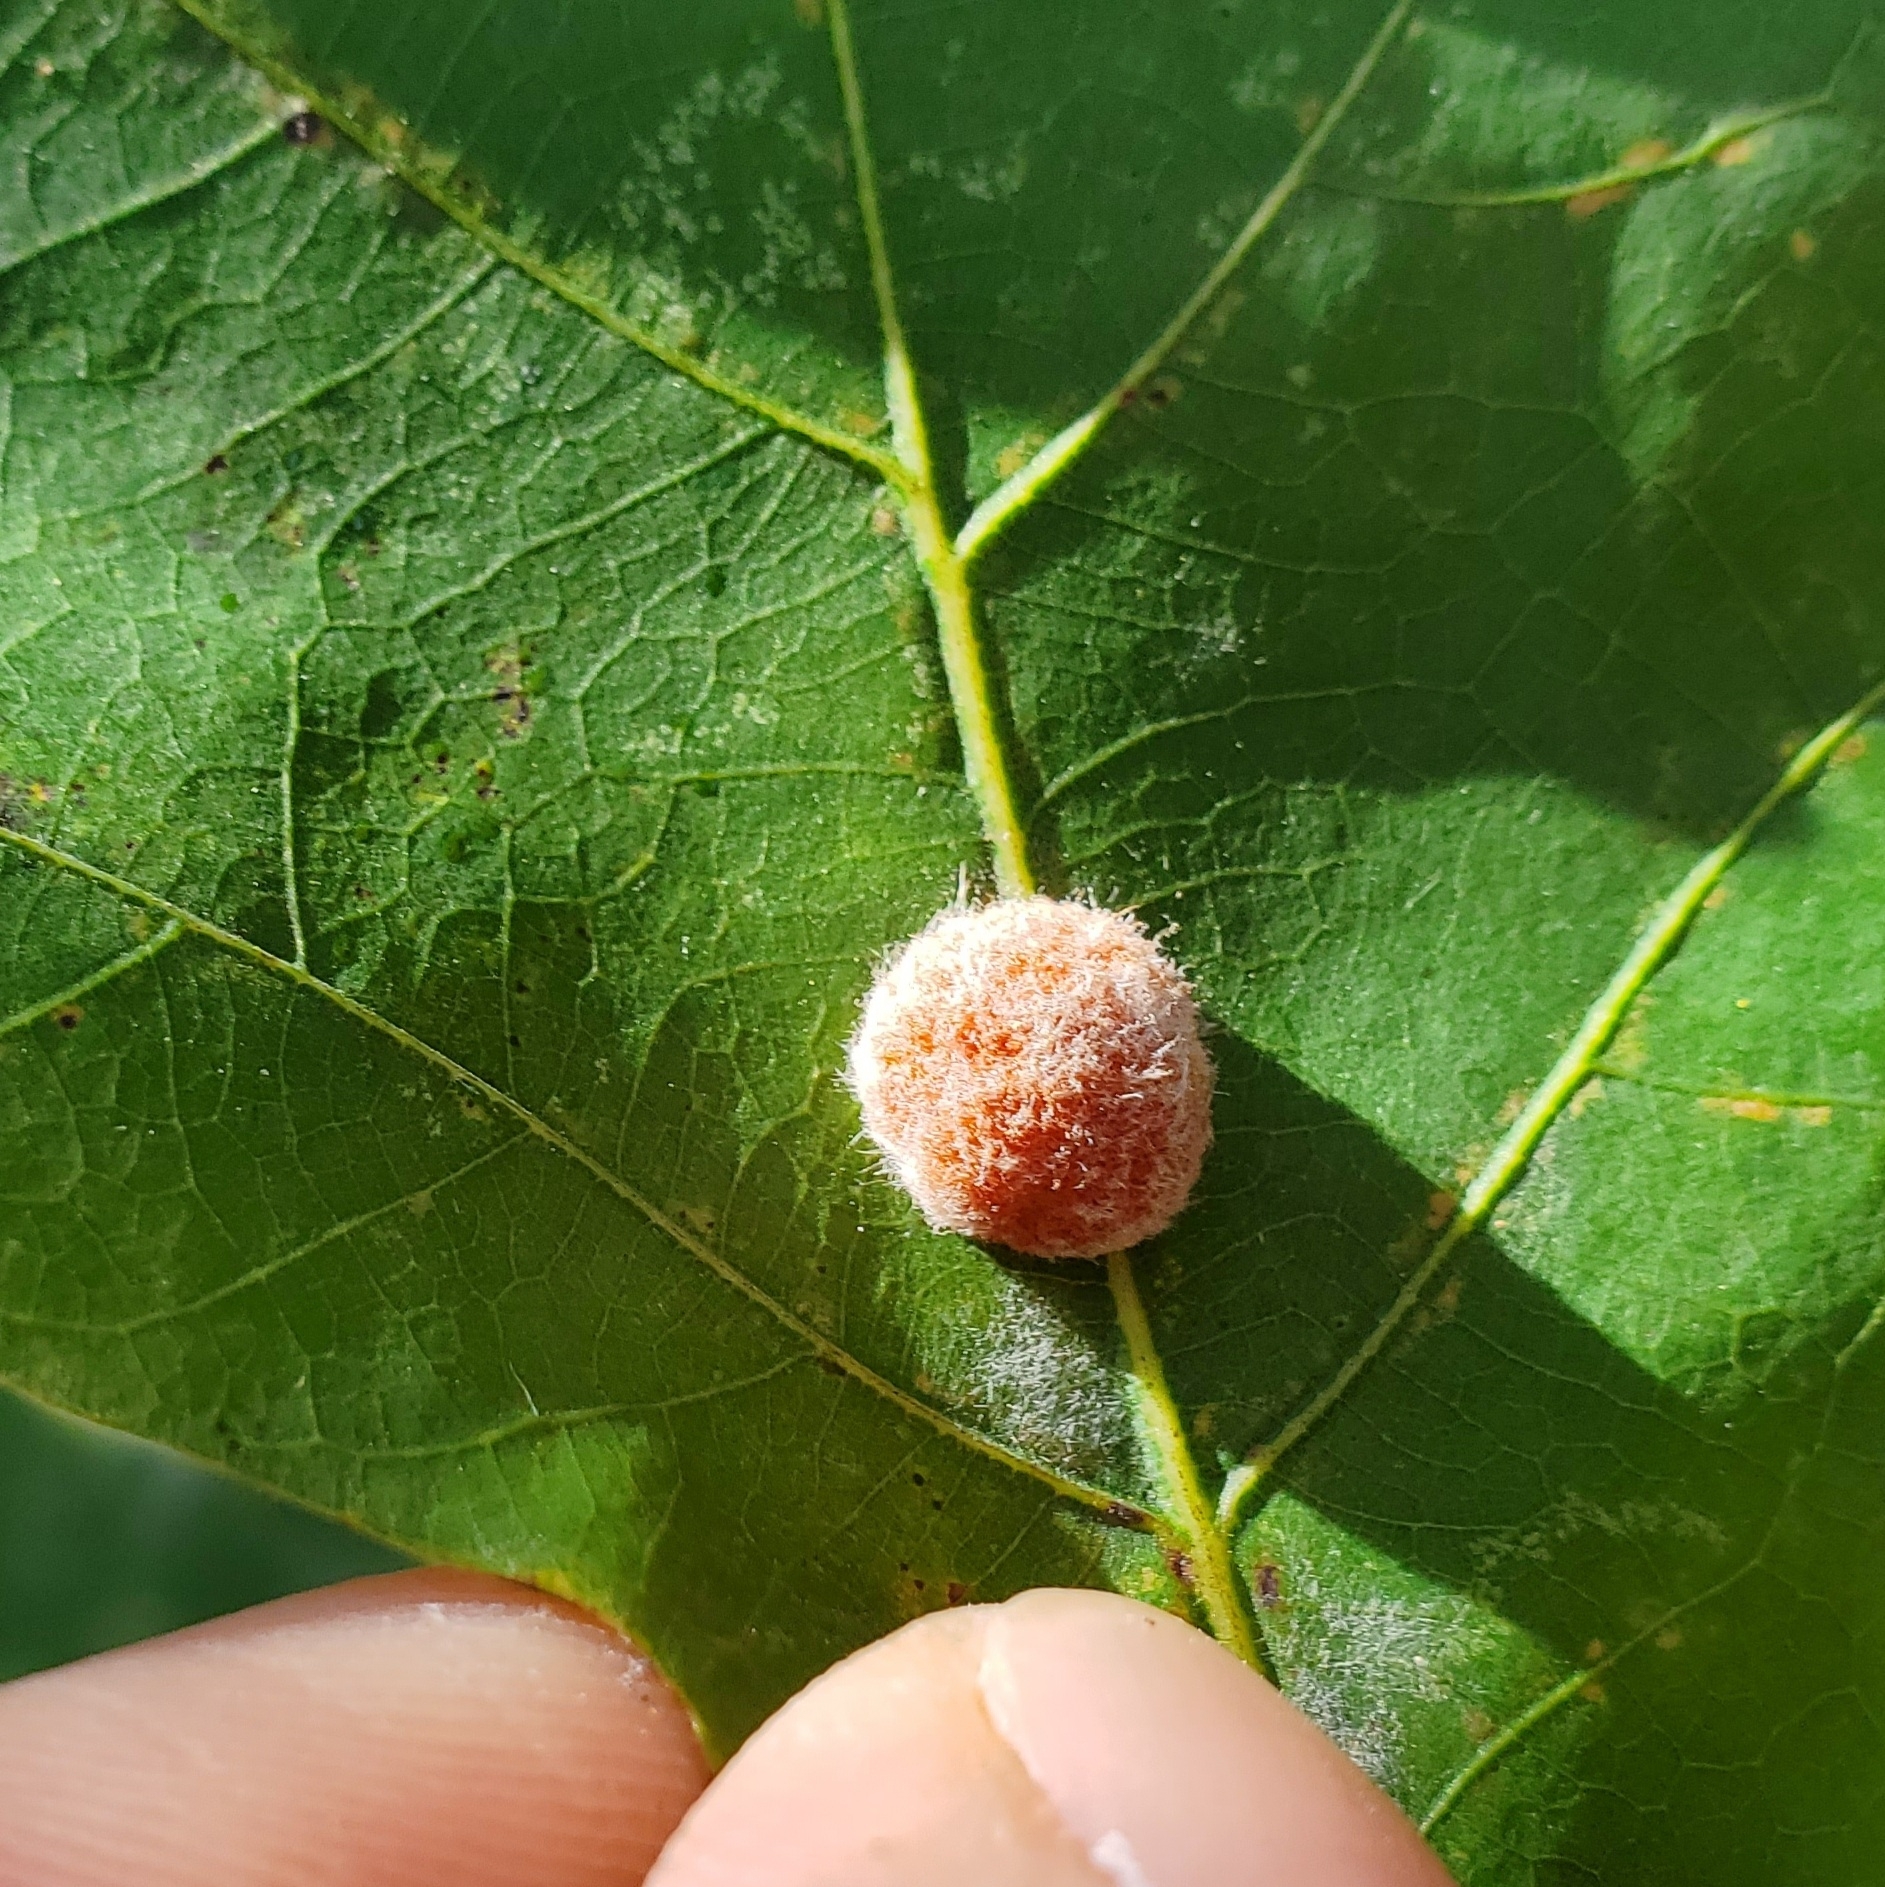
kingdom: Animalia
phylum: Arthropoda
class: Insecta
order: Hymenoptera
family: Cynipidae
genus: Andricus
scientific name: Andricus quercusflocci
